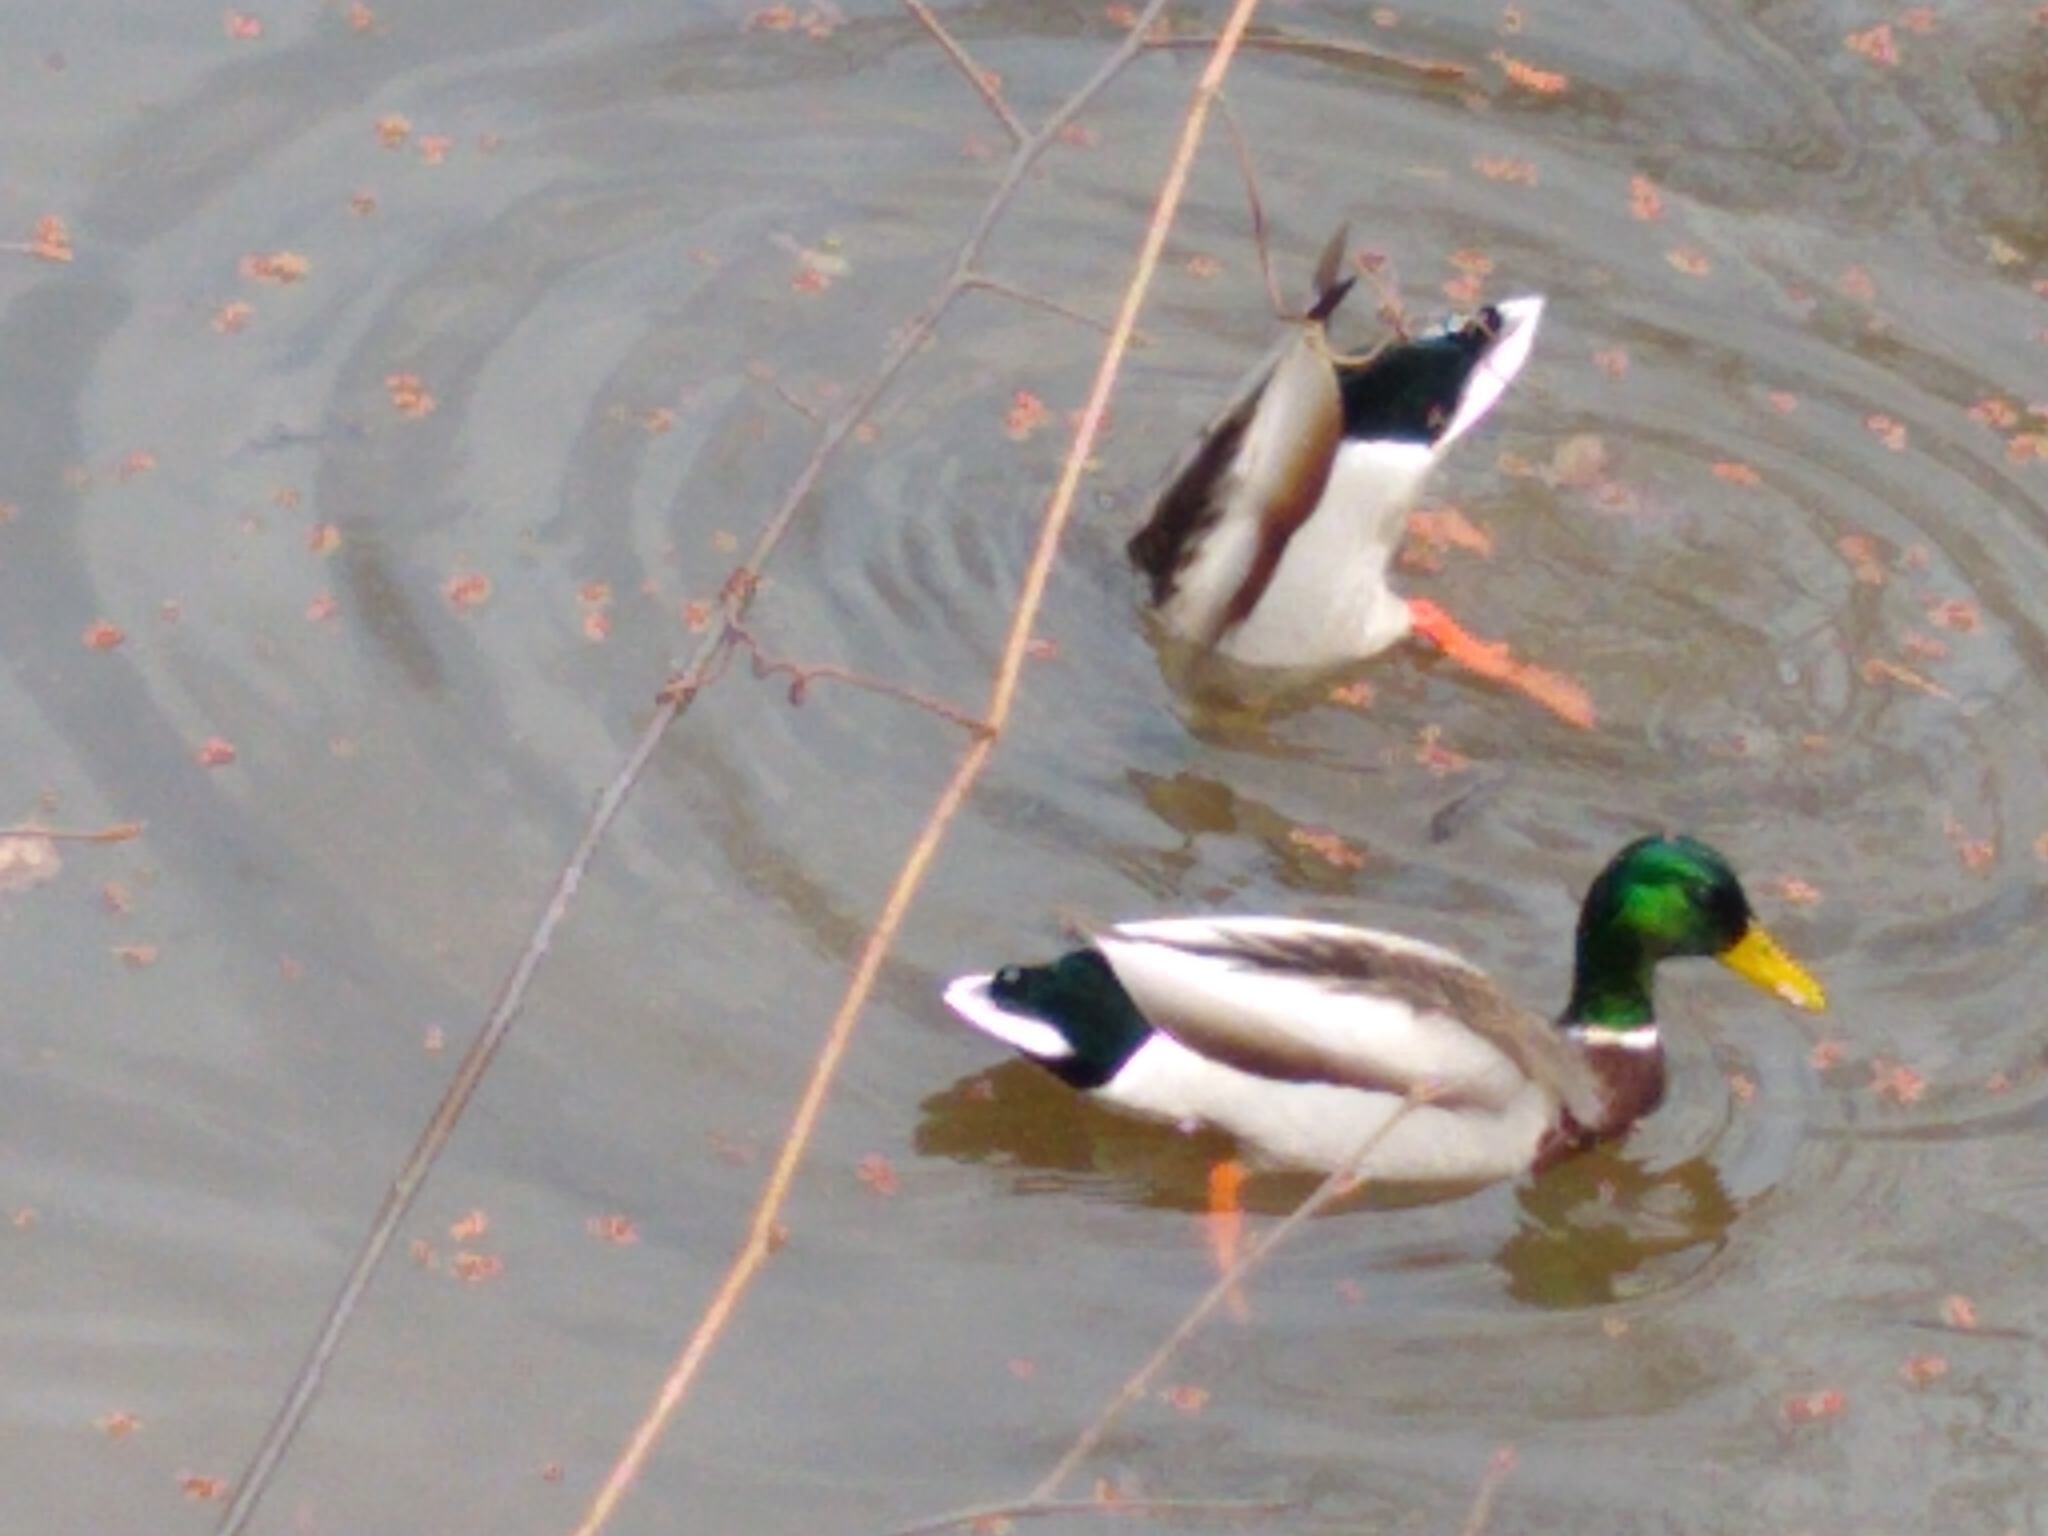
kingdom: Animalia
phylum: Chordata
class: Aves
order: Anseriformes
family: Anatidae
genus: Anas
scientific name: Anas platyrhynchos
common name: Mallard
